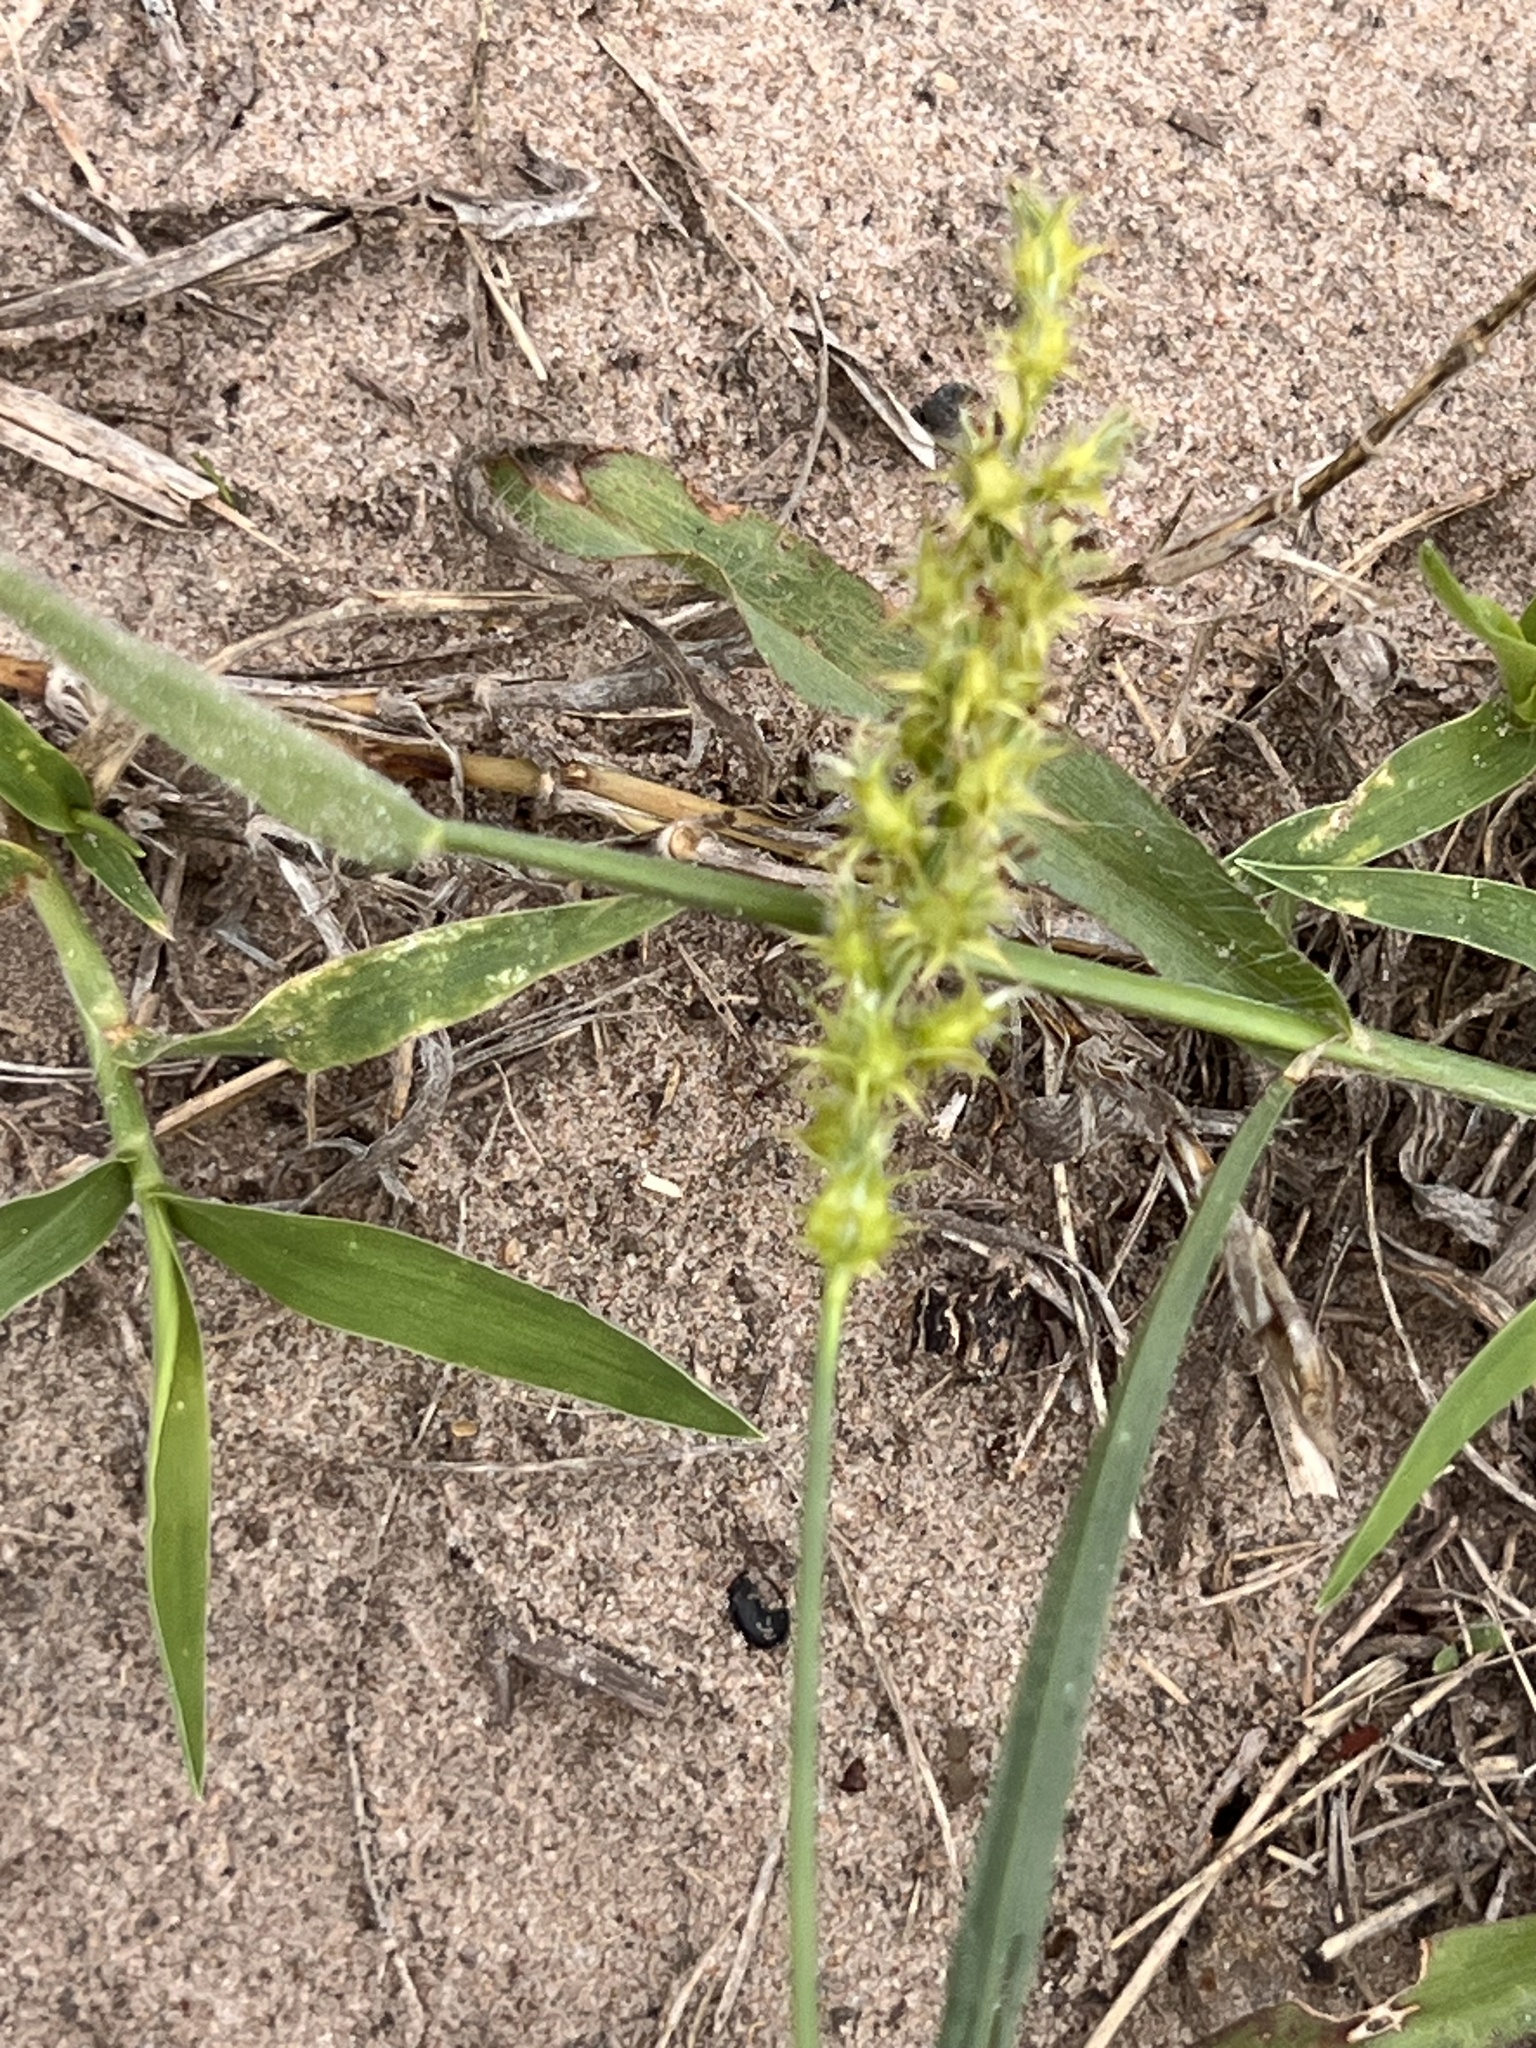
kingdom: Plantae
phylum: Tracheophyta
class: Liliopsida
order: Poales
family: Poaceae
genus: Cenchrus
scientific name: Cenchrus spinifex
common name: Coast sandbur
